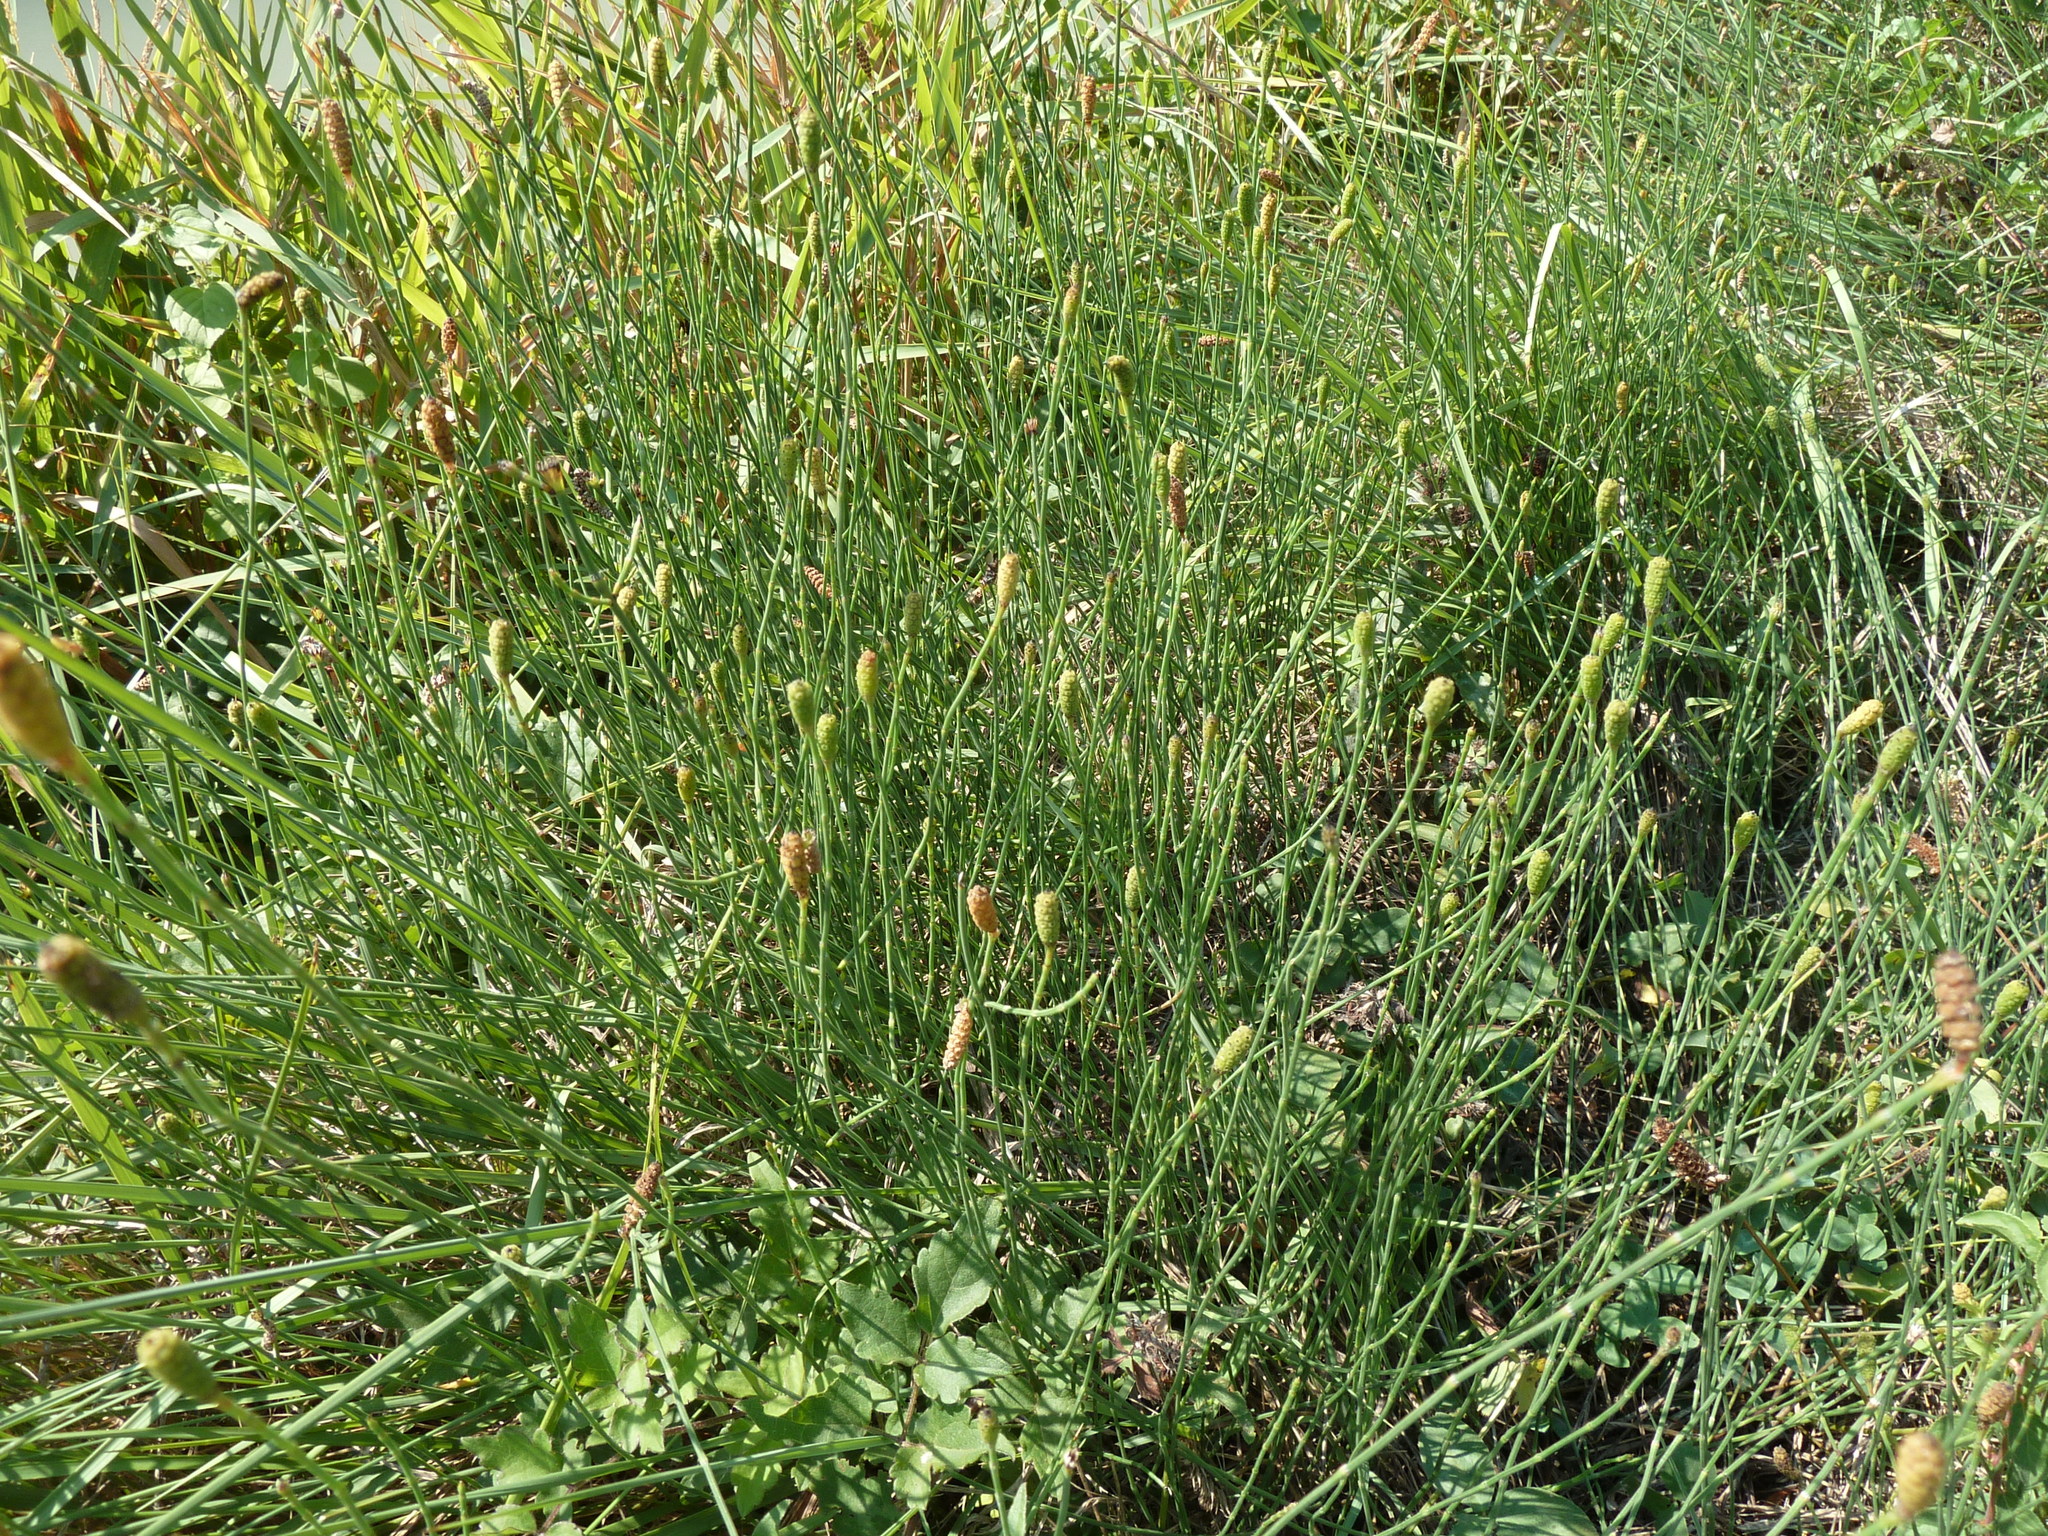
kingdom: Plantae
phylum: Tracheophyta
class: Polypodiopsida
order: Equisetales
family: Equisetaceae
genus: Equisetum
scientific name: Equisetum ramosissimum
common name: Branched horsetail
